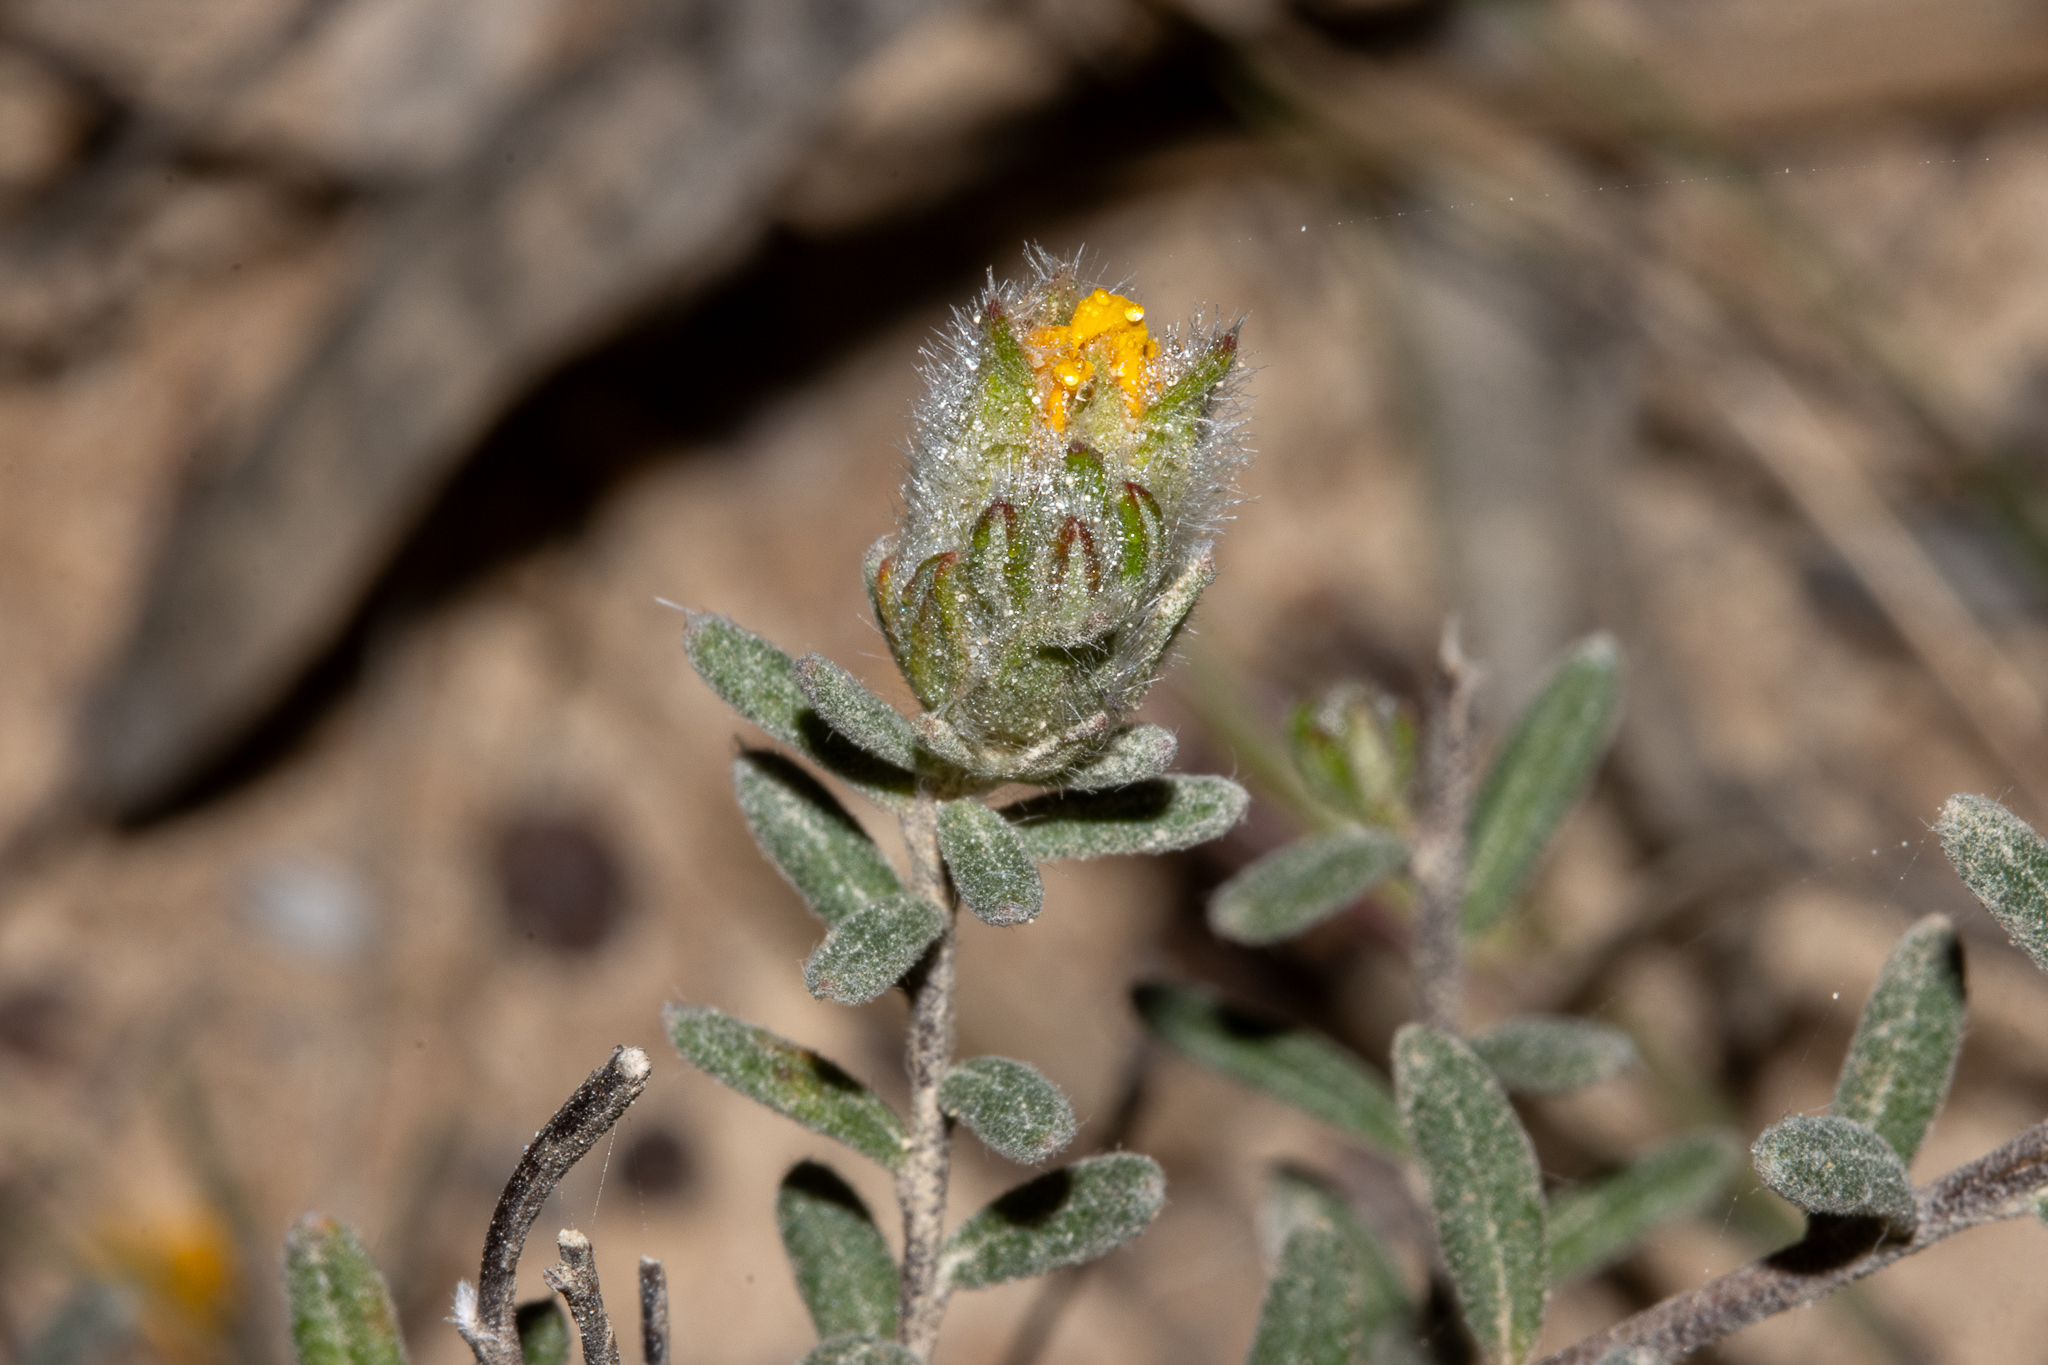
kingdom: Plantae
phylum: Tracheophyta
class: Magnoliopsida
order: Dilleniales
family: Dilleniaceae
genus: Hibbertia
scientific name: Hibbertia crinita
